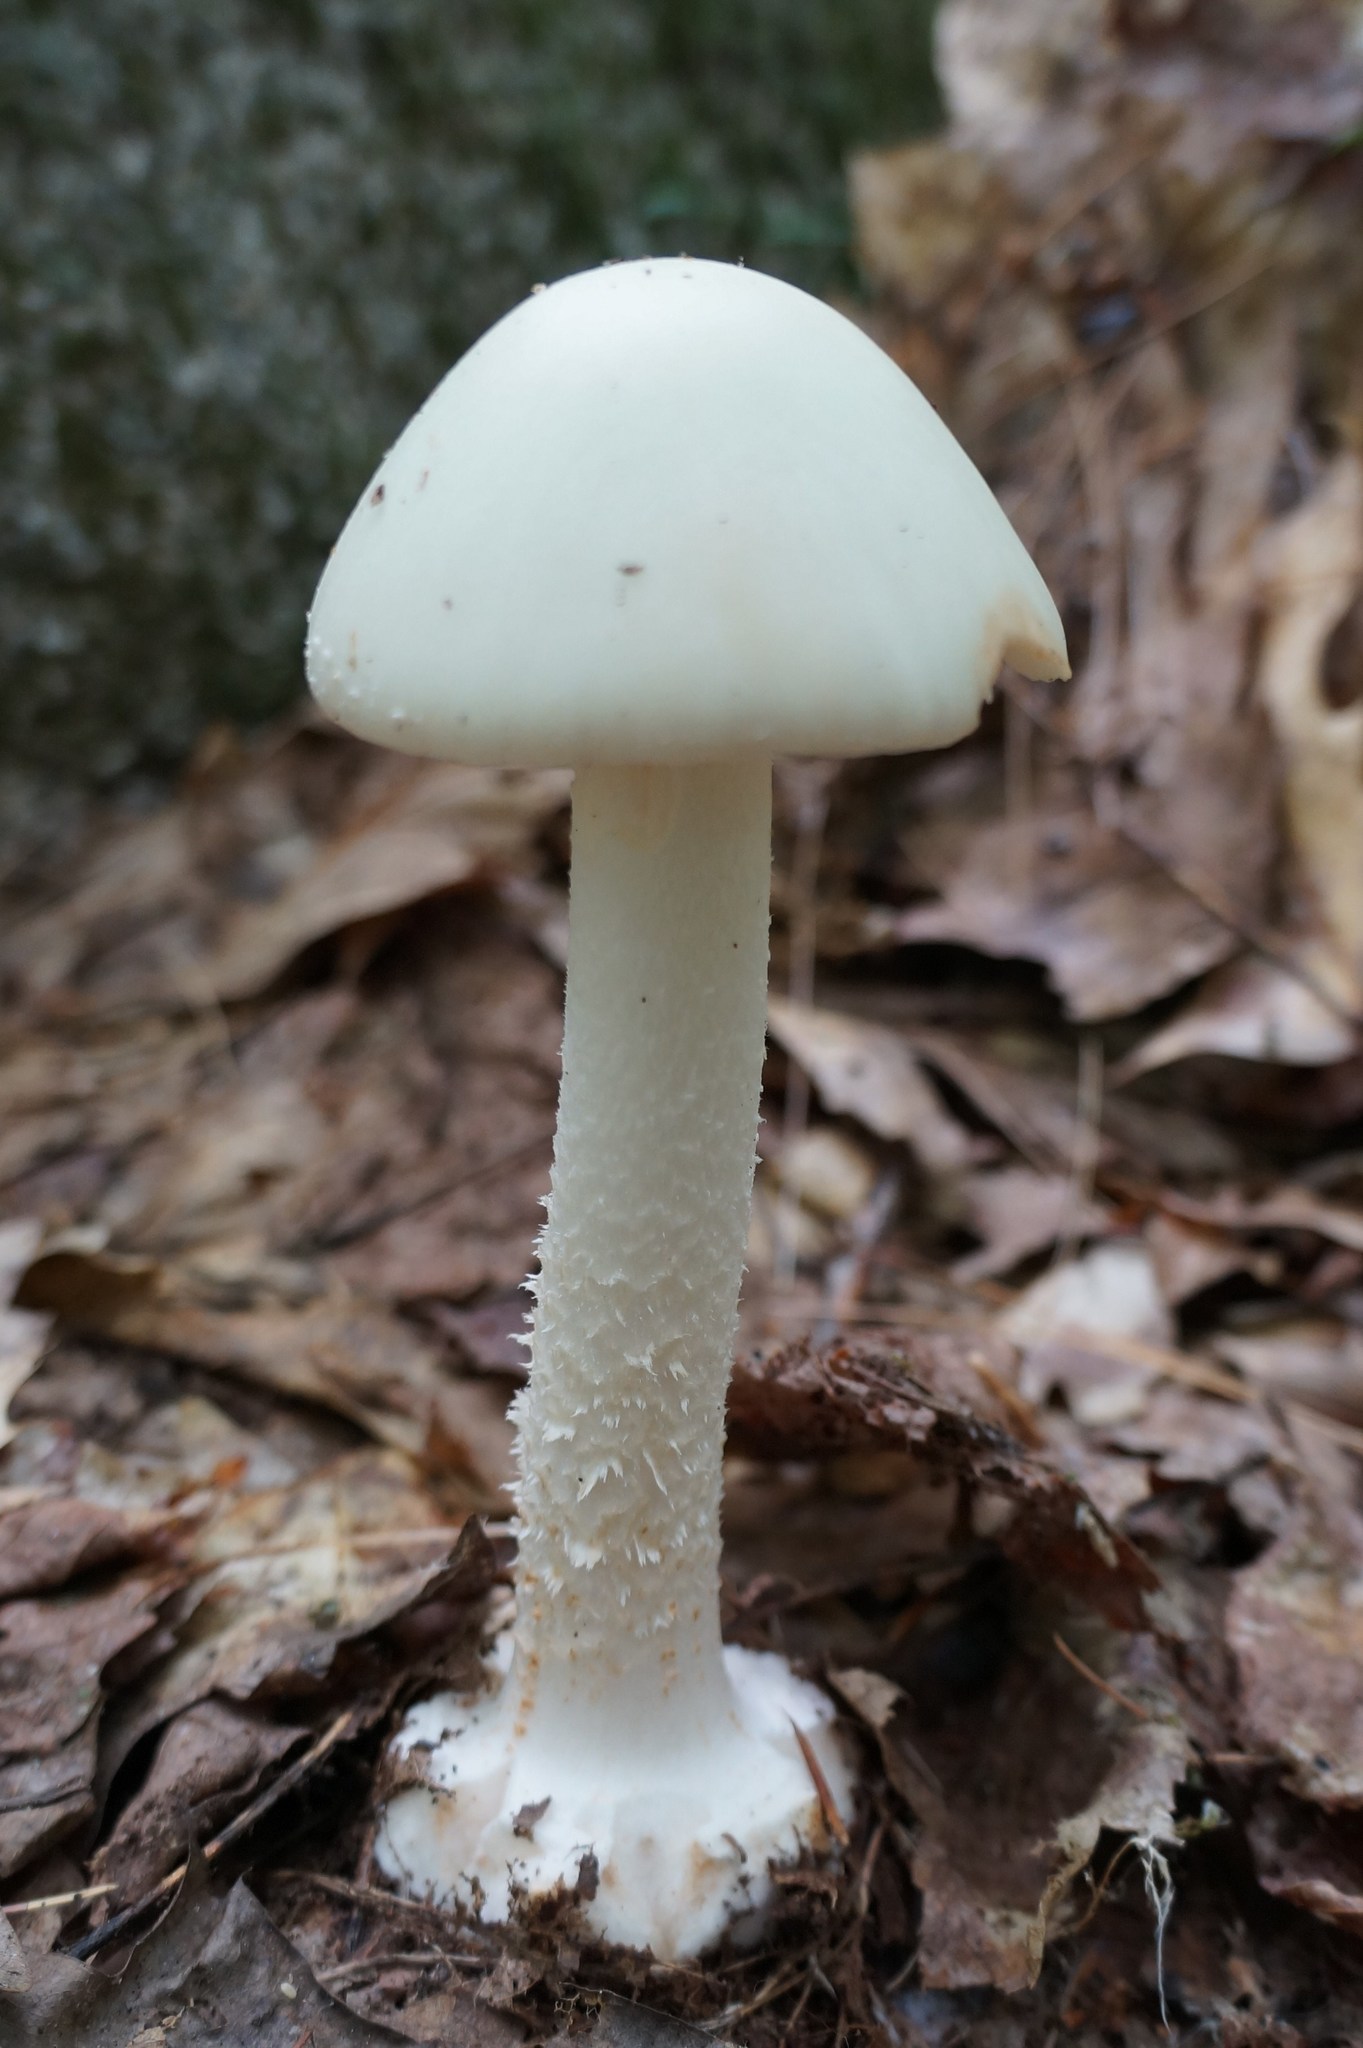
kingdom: Fungi
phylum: Basidiomycota
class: Agaricomycetes
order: Agaricales
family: Amanitaceae
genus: Amanita
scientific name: Amanita brunnescens
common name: Brown american star-footed amanita
